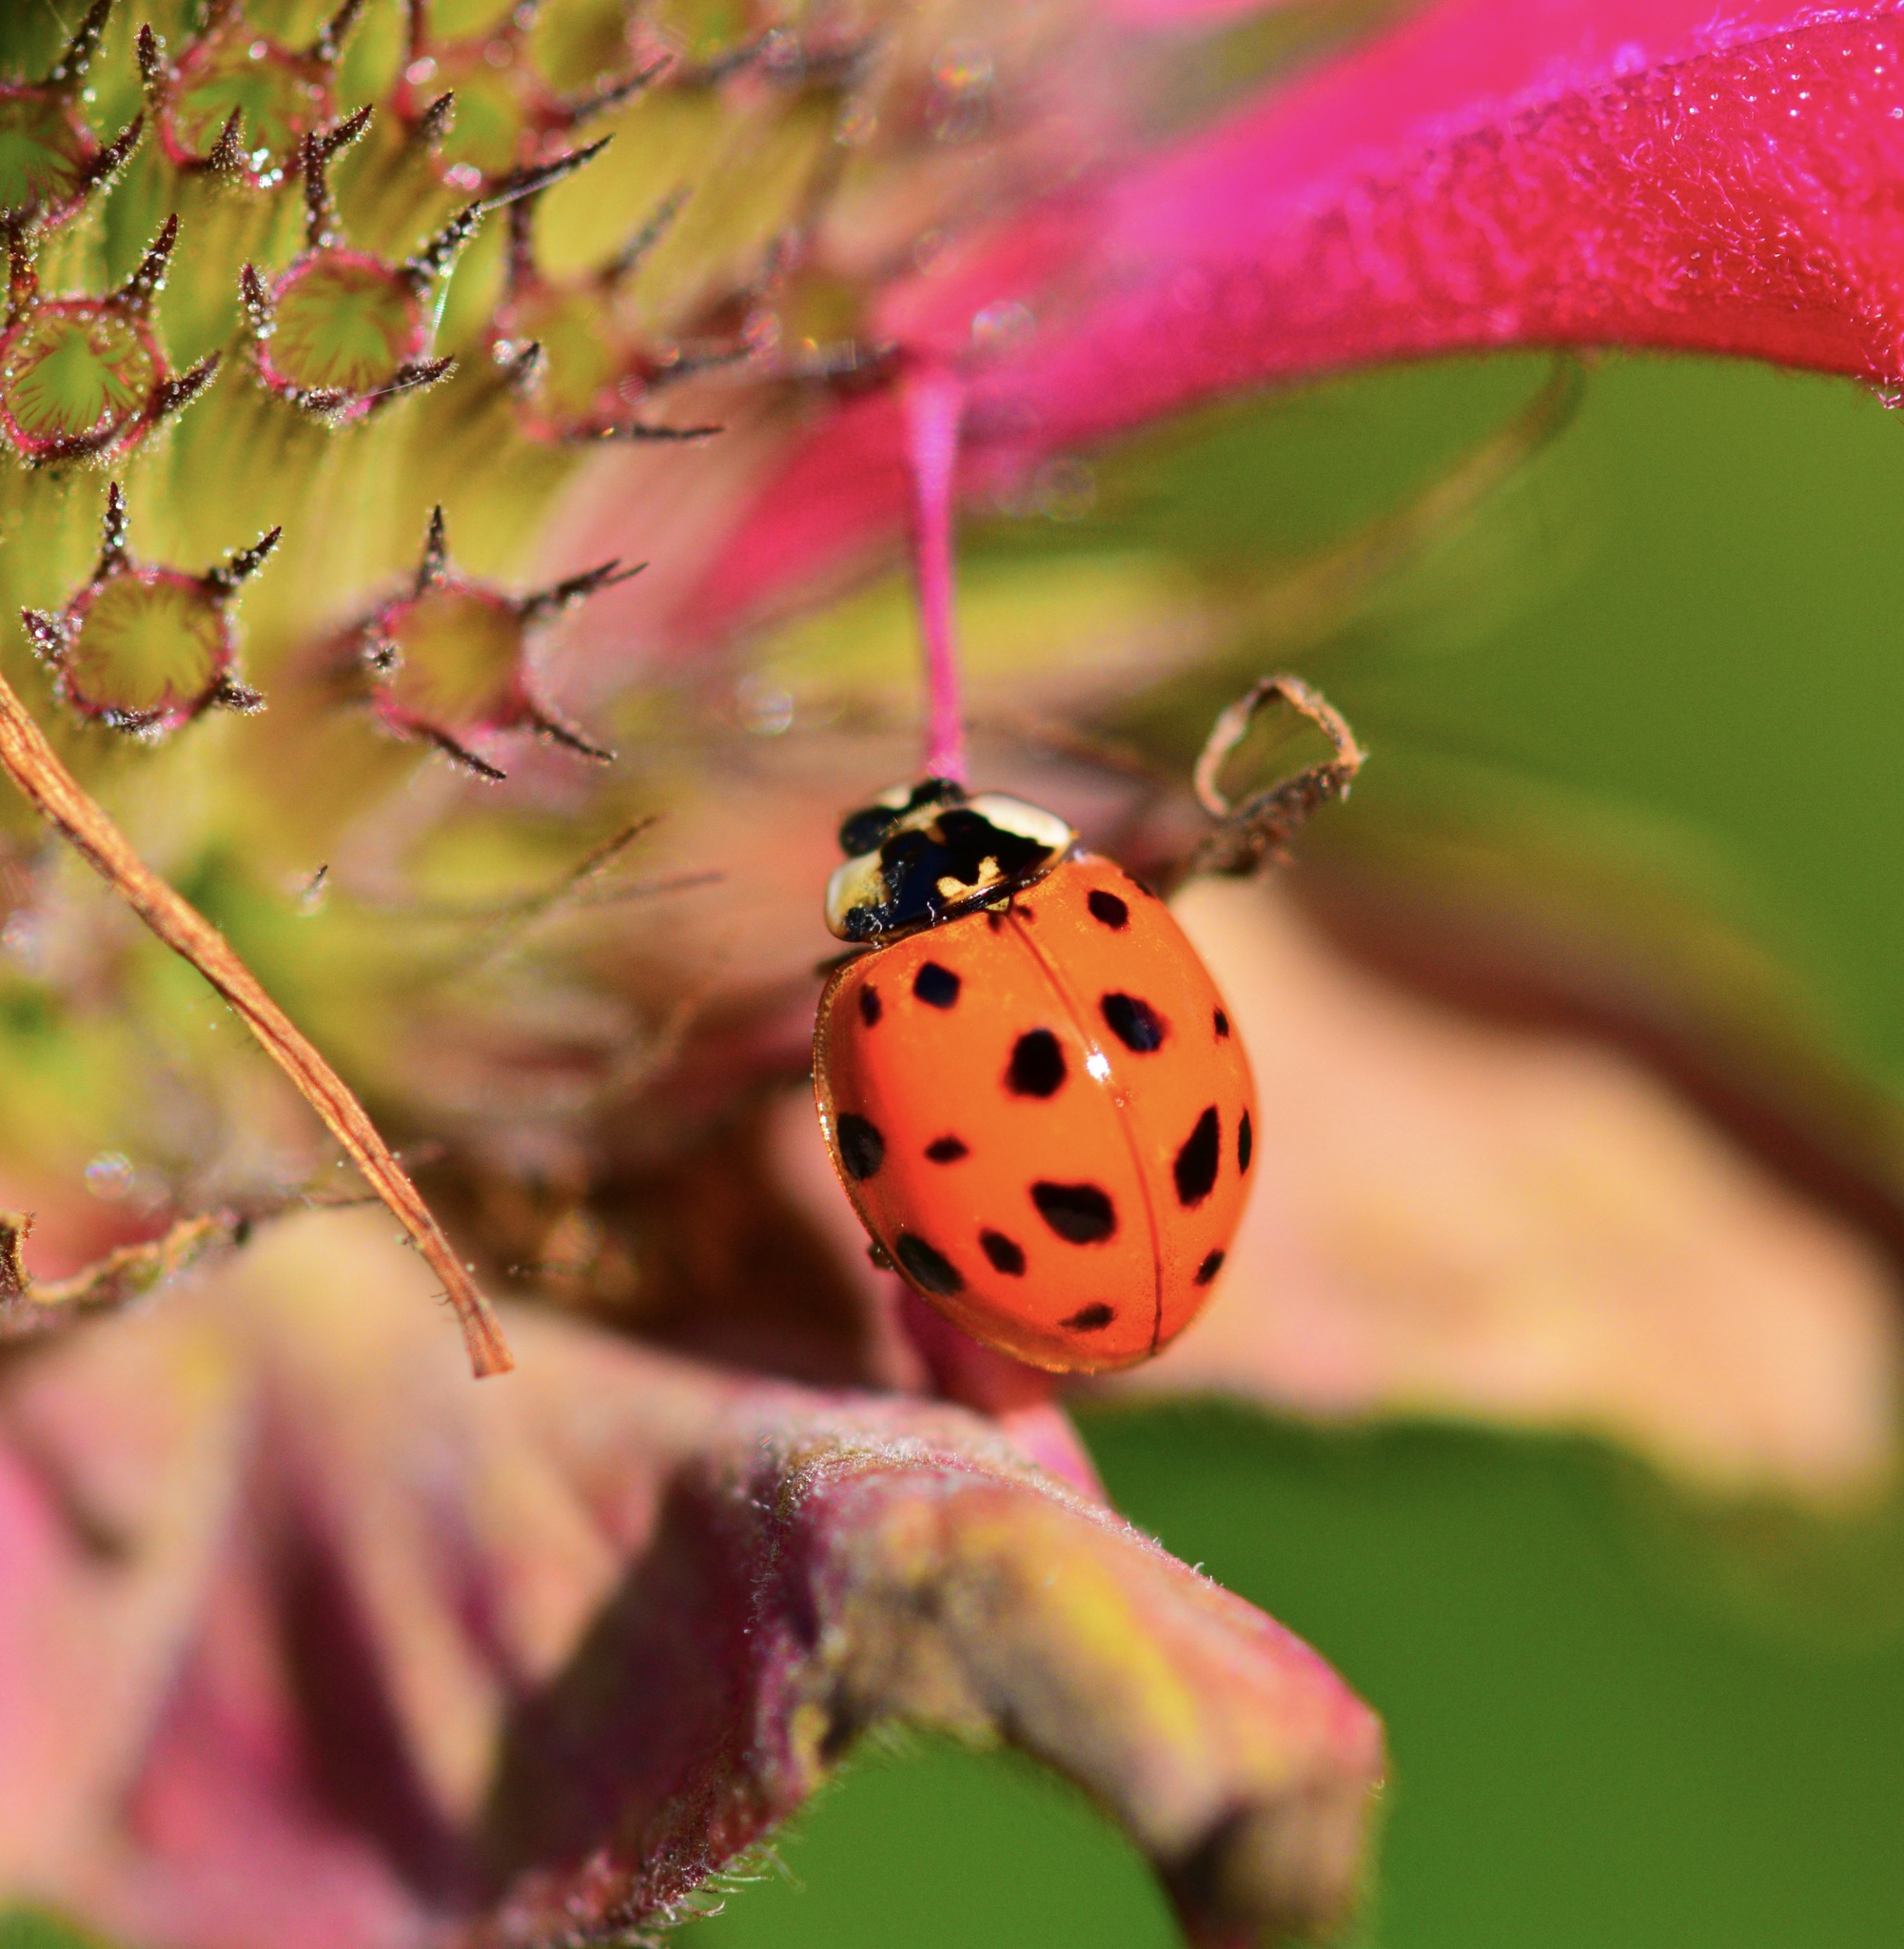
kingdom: Animalia
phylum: Arthropoda
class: Insecta
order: Coleoptera
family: Coccinellidae
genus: Harmonia
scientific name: Harmonia axyridis
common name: Harlequin ladybird
